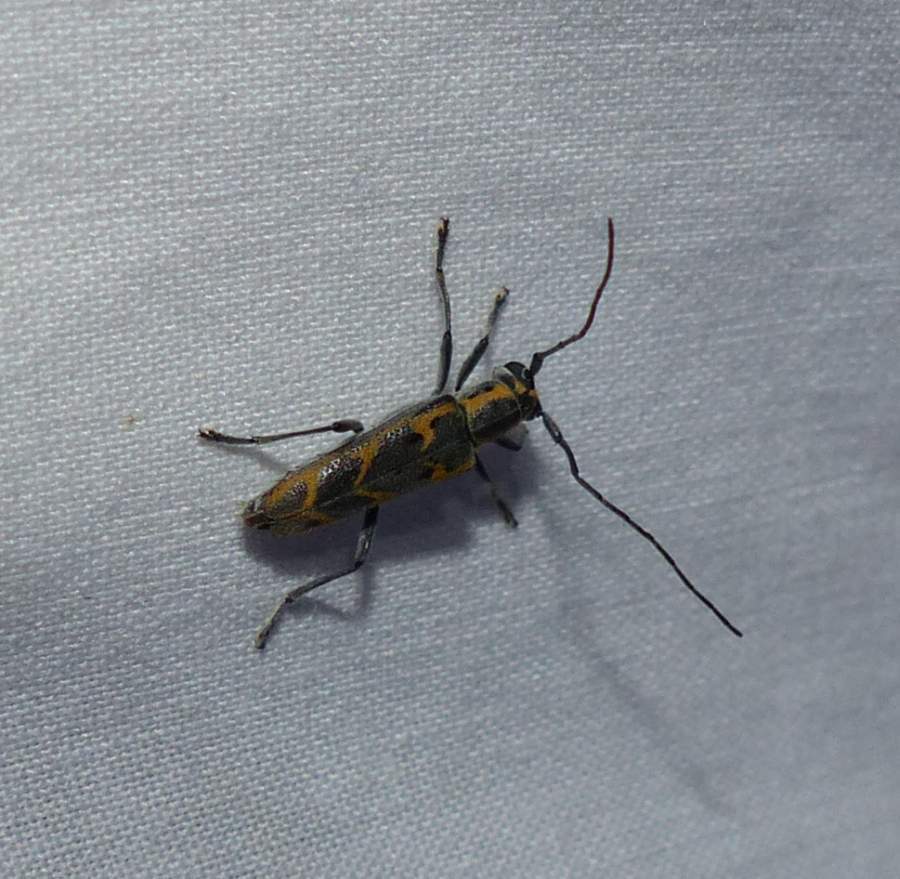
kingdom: Animalia
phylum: Arthropoda
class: Insecta
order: Coleoptera
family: Cerambycidae
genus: Saperda
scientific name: Saperda tridentata
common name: Elm borer
